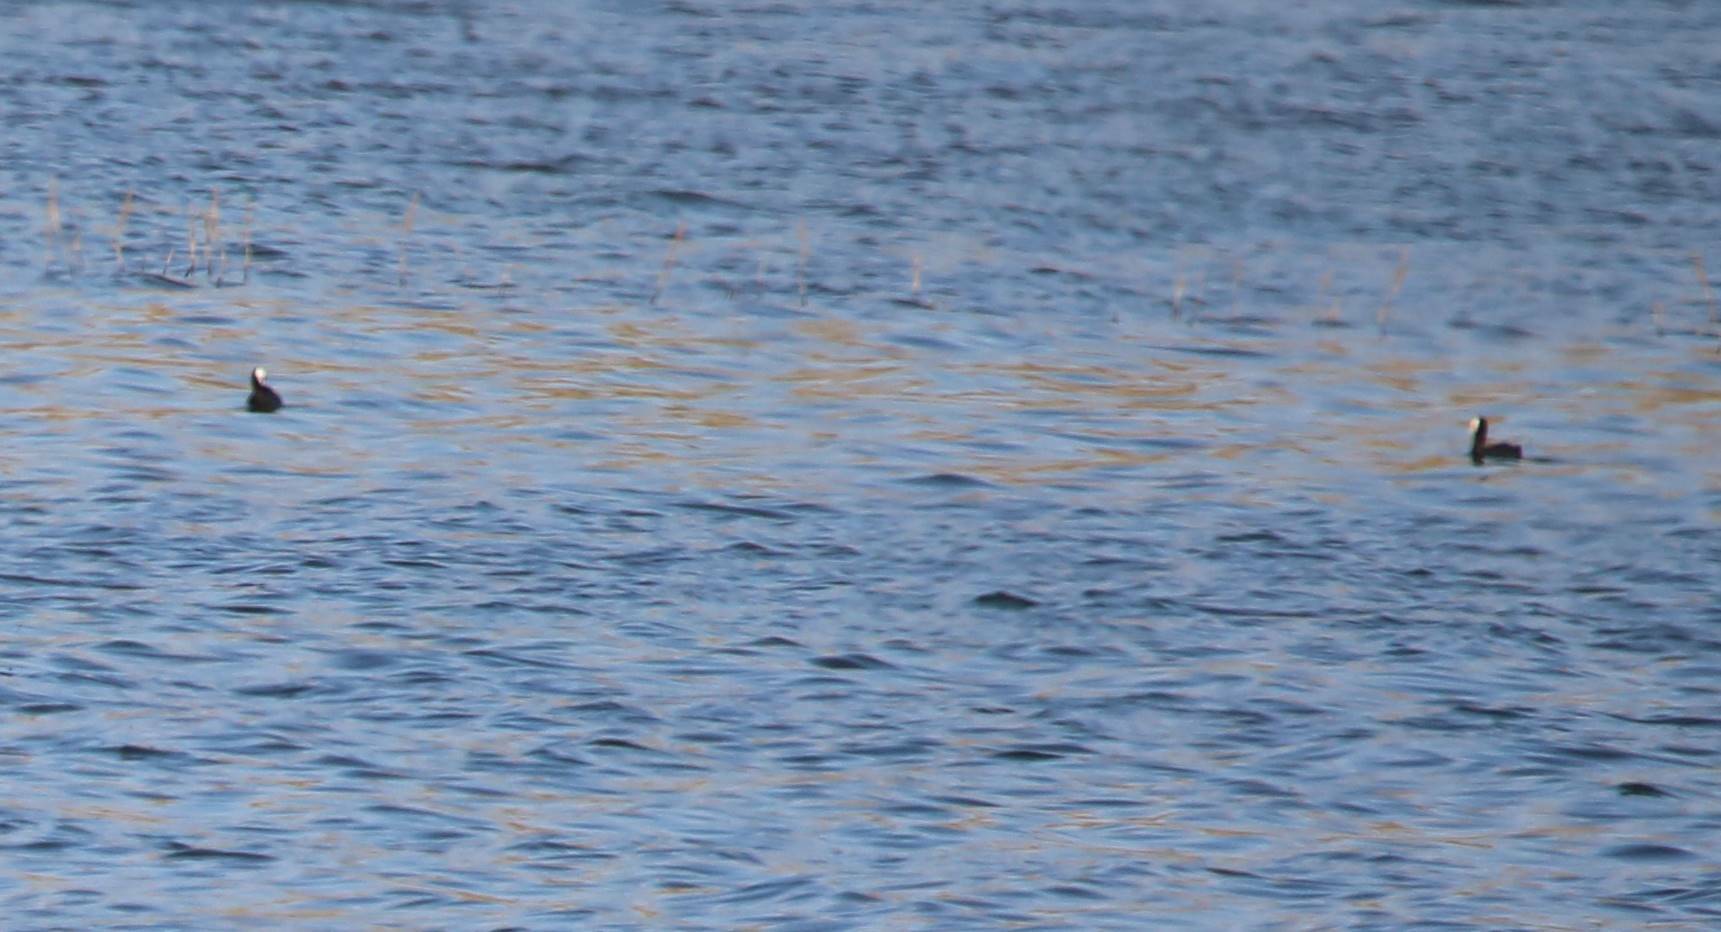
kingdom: Animalia
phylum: Chordata
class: Aves
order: Gruiformes
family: Rallidae
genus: Fulica
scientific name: Fulica atra
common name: Eurasian coot
